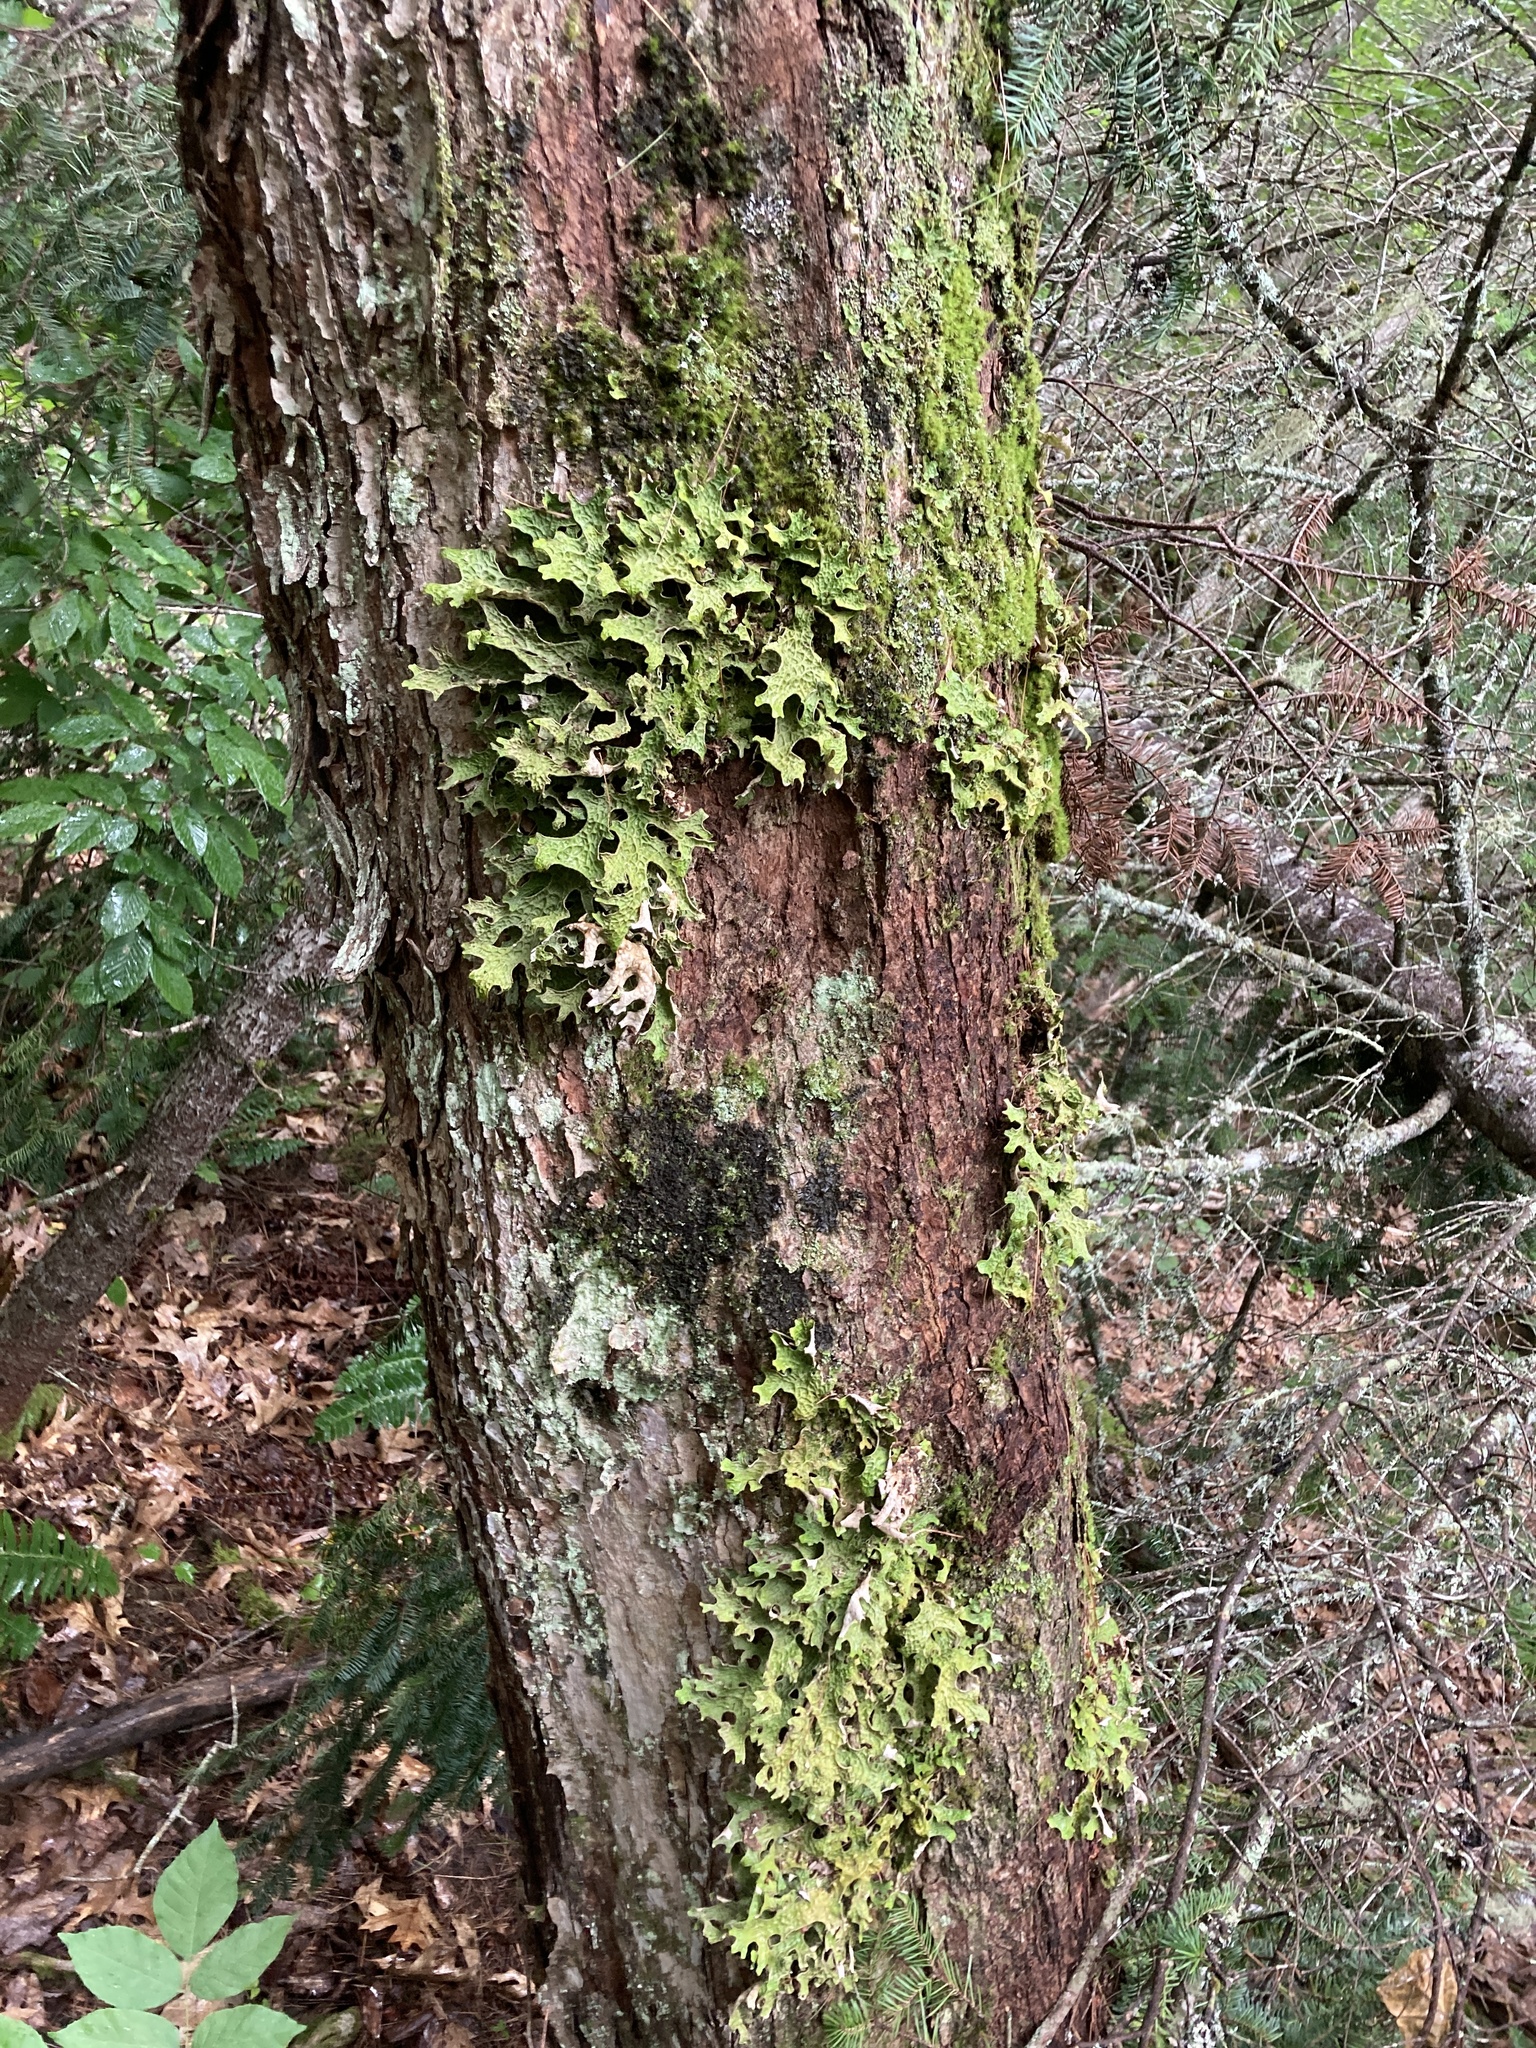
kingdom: Fungi
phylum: Ascomycota
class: Lecanoromycetes
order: Peltigerales
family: Lobariaceae
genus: Lobaria
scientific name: Lobaria pulmonaria
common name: Lungwort
